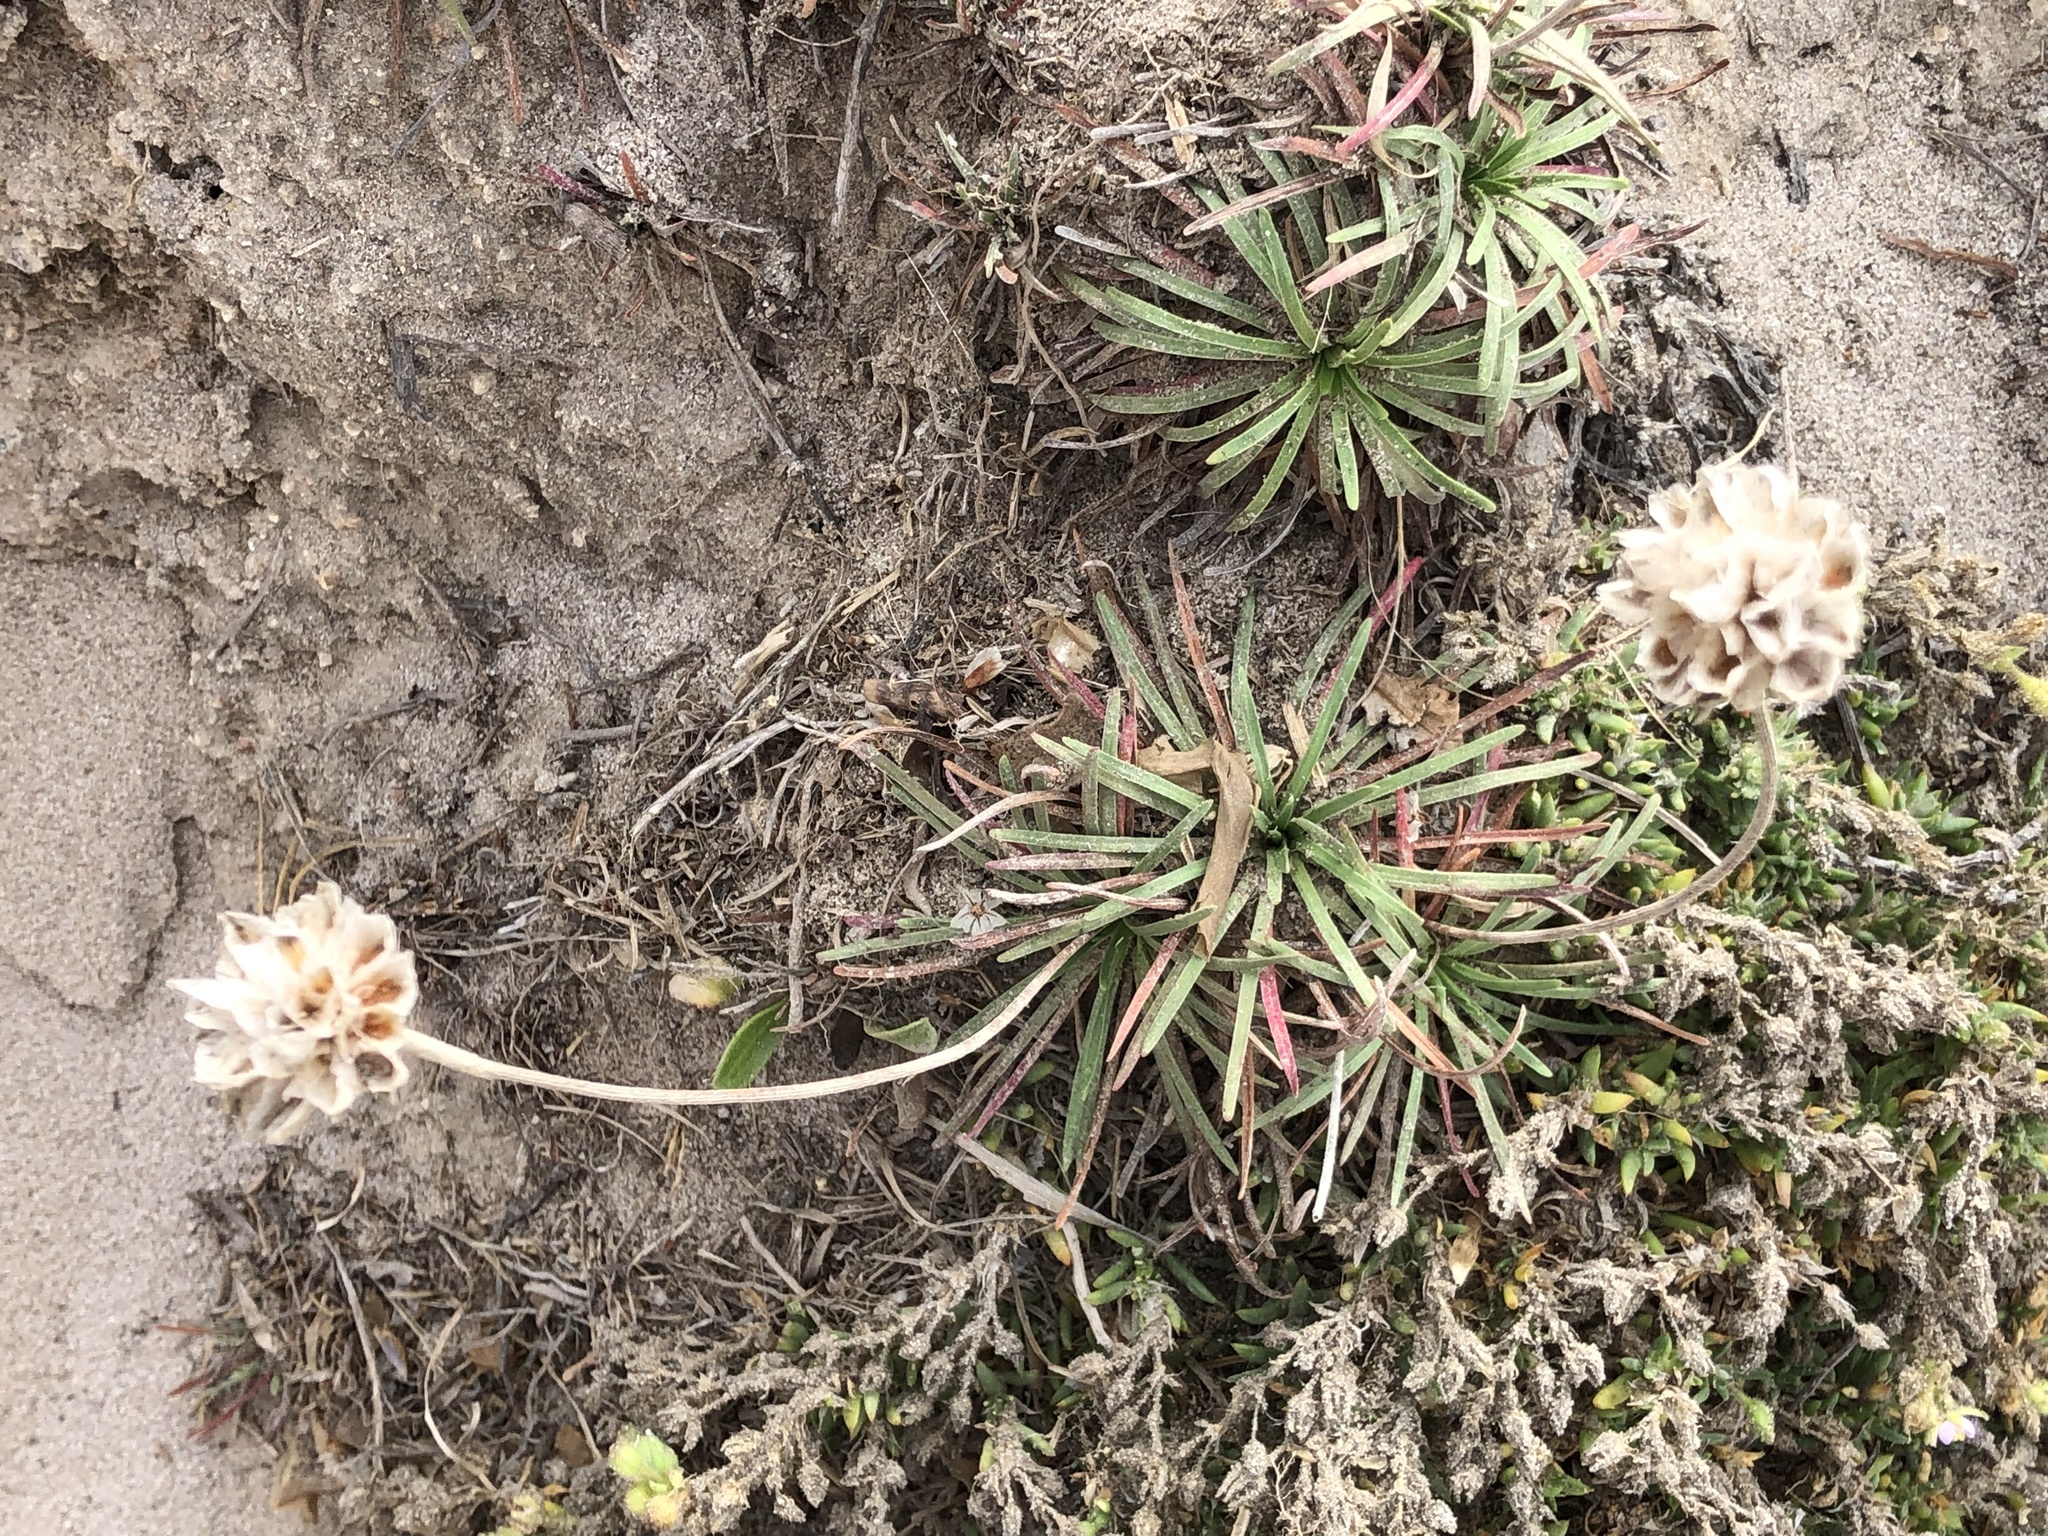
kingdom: Plantae
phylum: Tracheophyta
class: Magnoliopsida
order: Caryophyllales
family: Plumbaginaceae
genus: Armeria
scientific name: Armeria maritima
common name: Thrift
